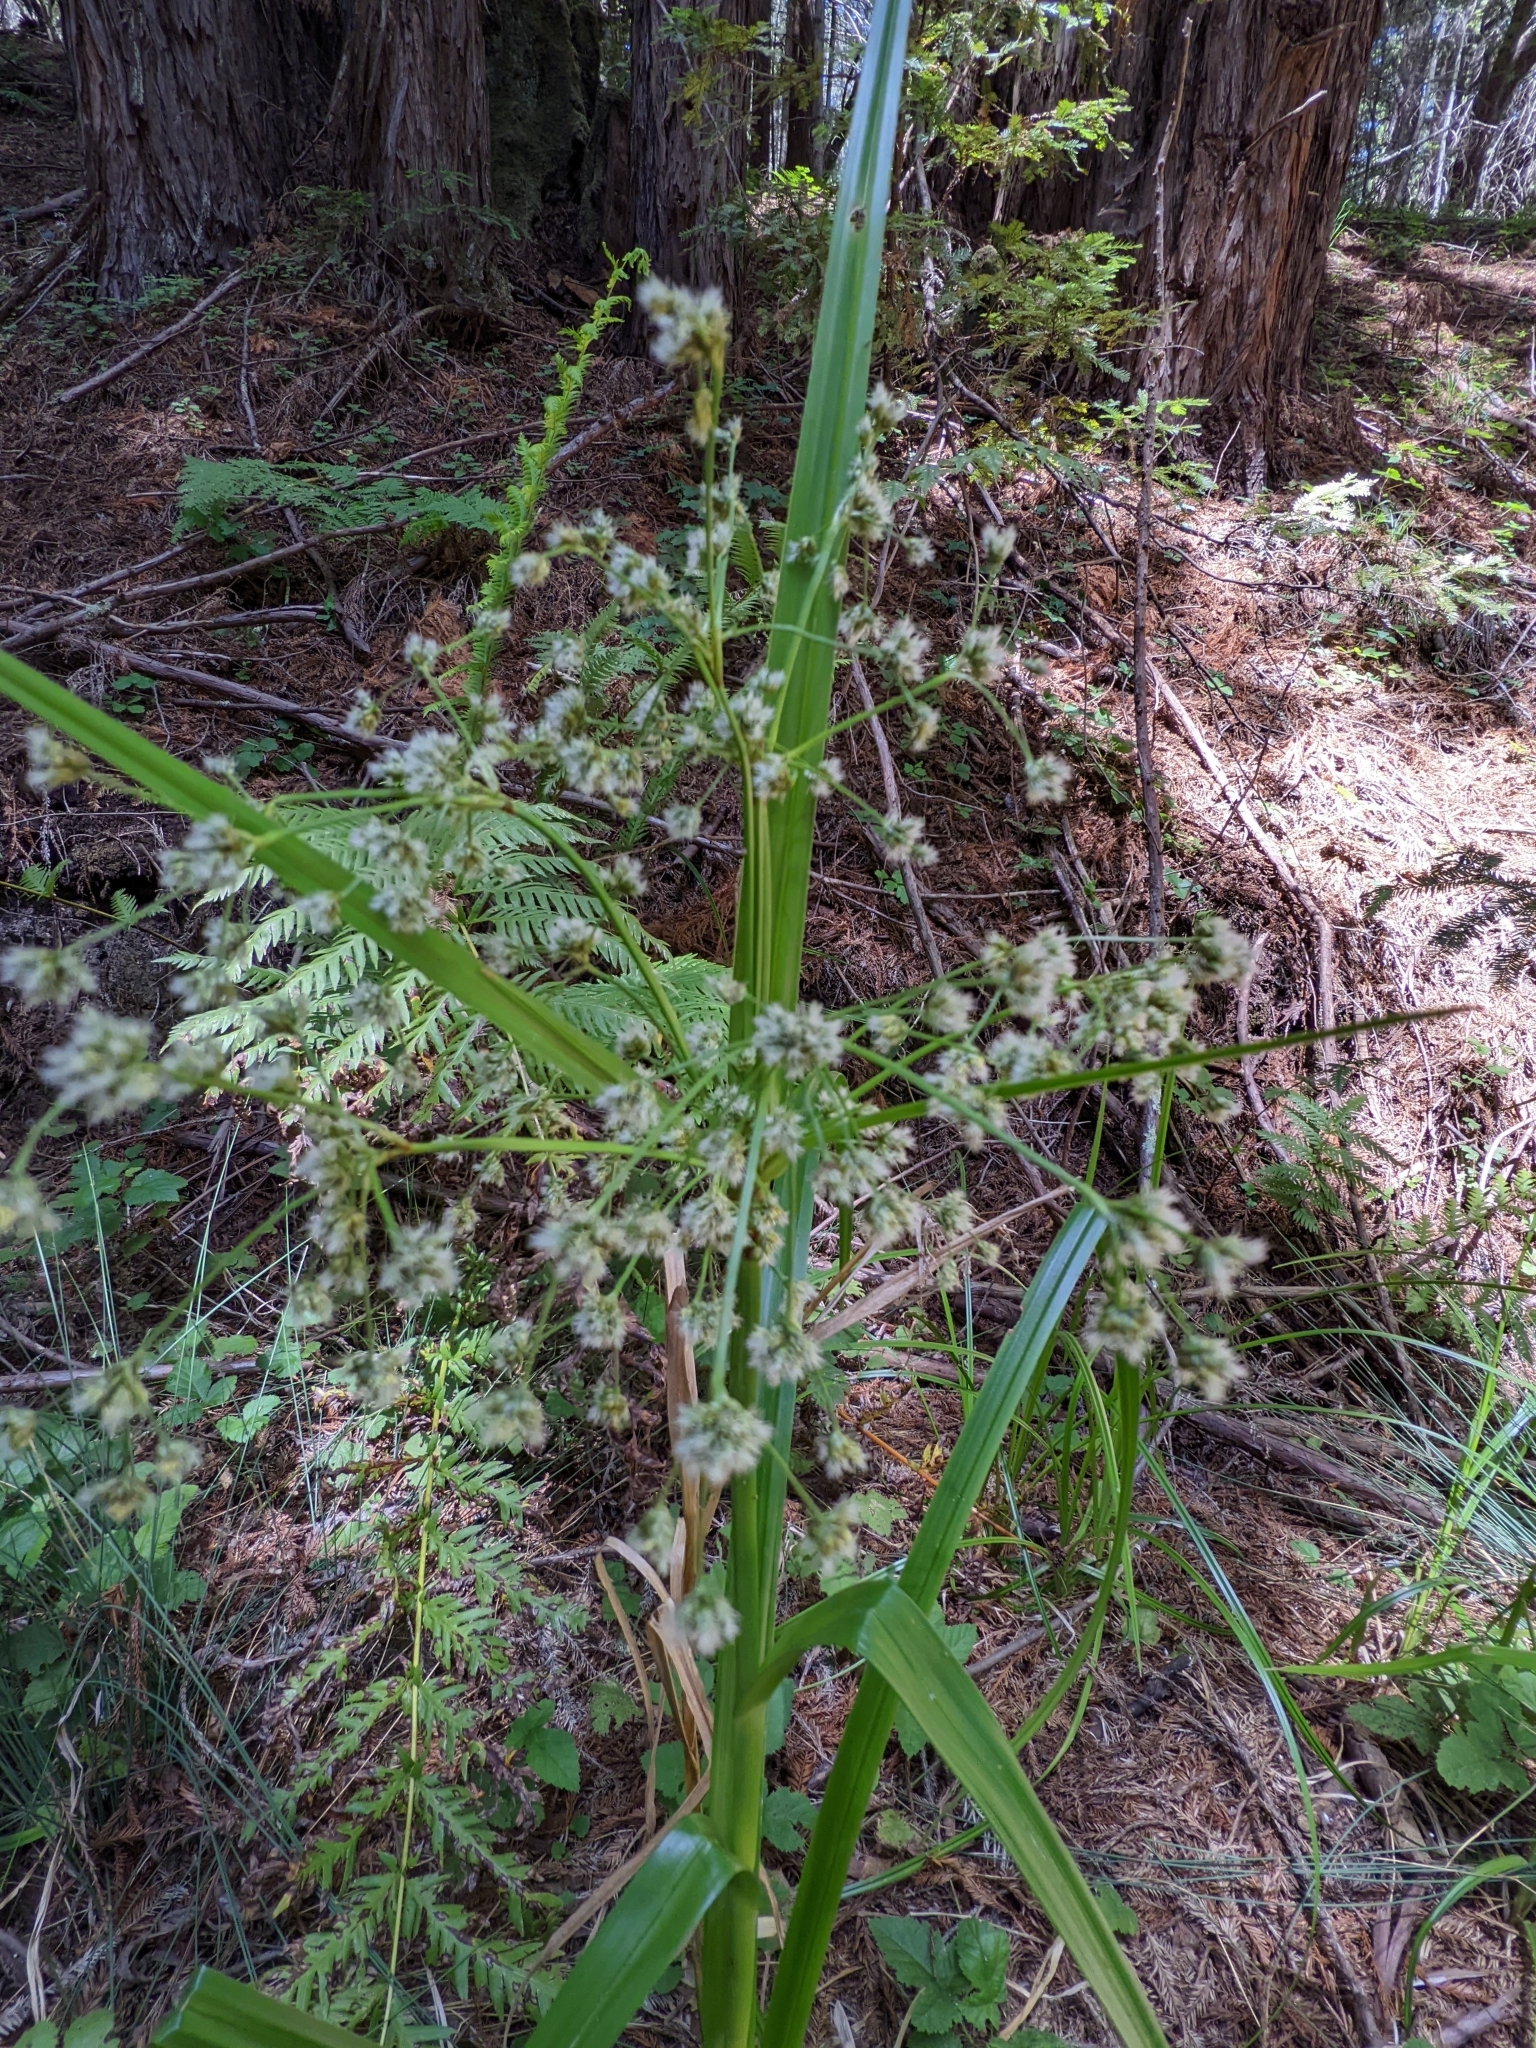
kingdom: Plantae
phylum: Tracheophyta
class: Liliopsida
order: Poales
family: Cyperaceae
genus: Scirpus
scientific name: Scirpus microcarpus
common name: Panicled bulrush
